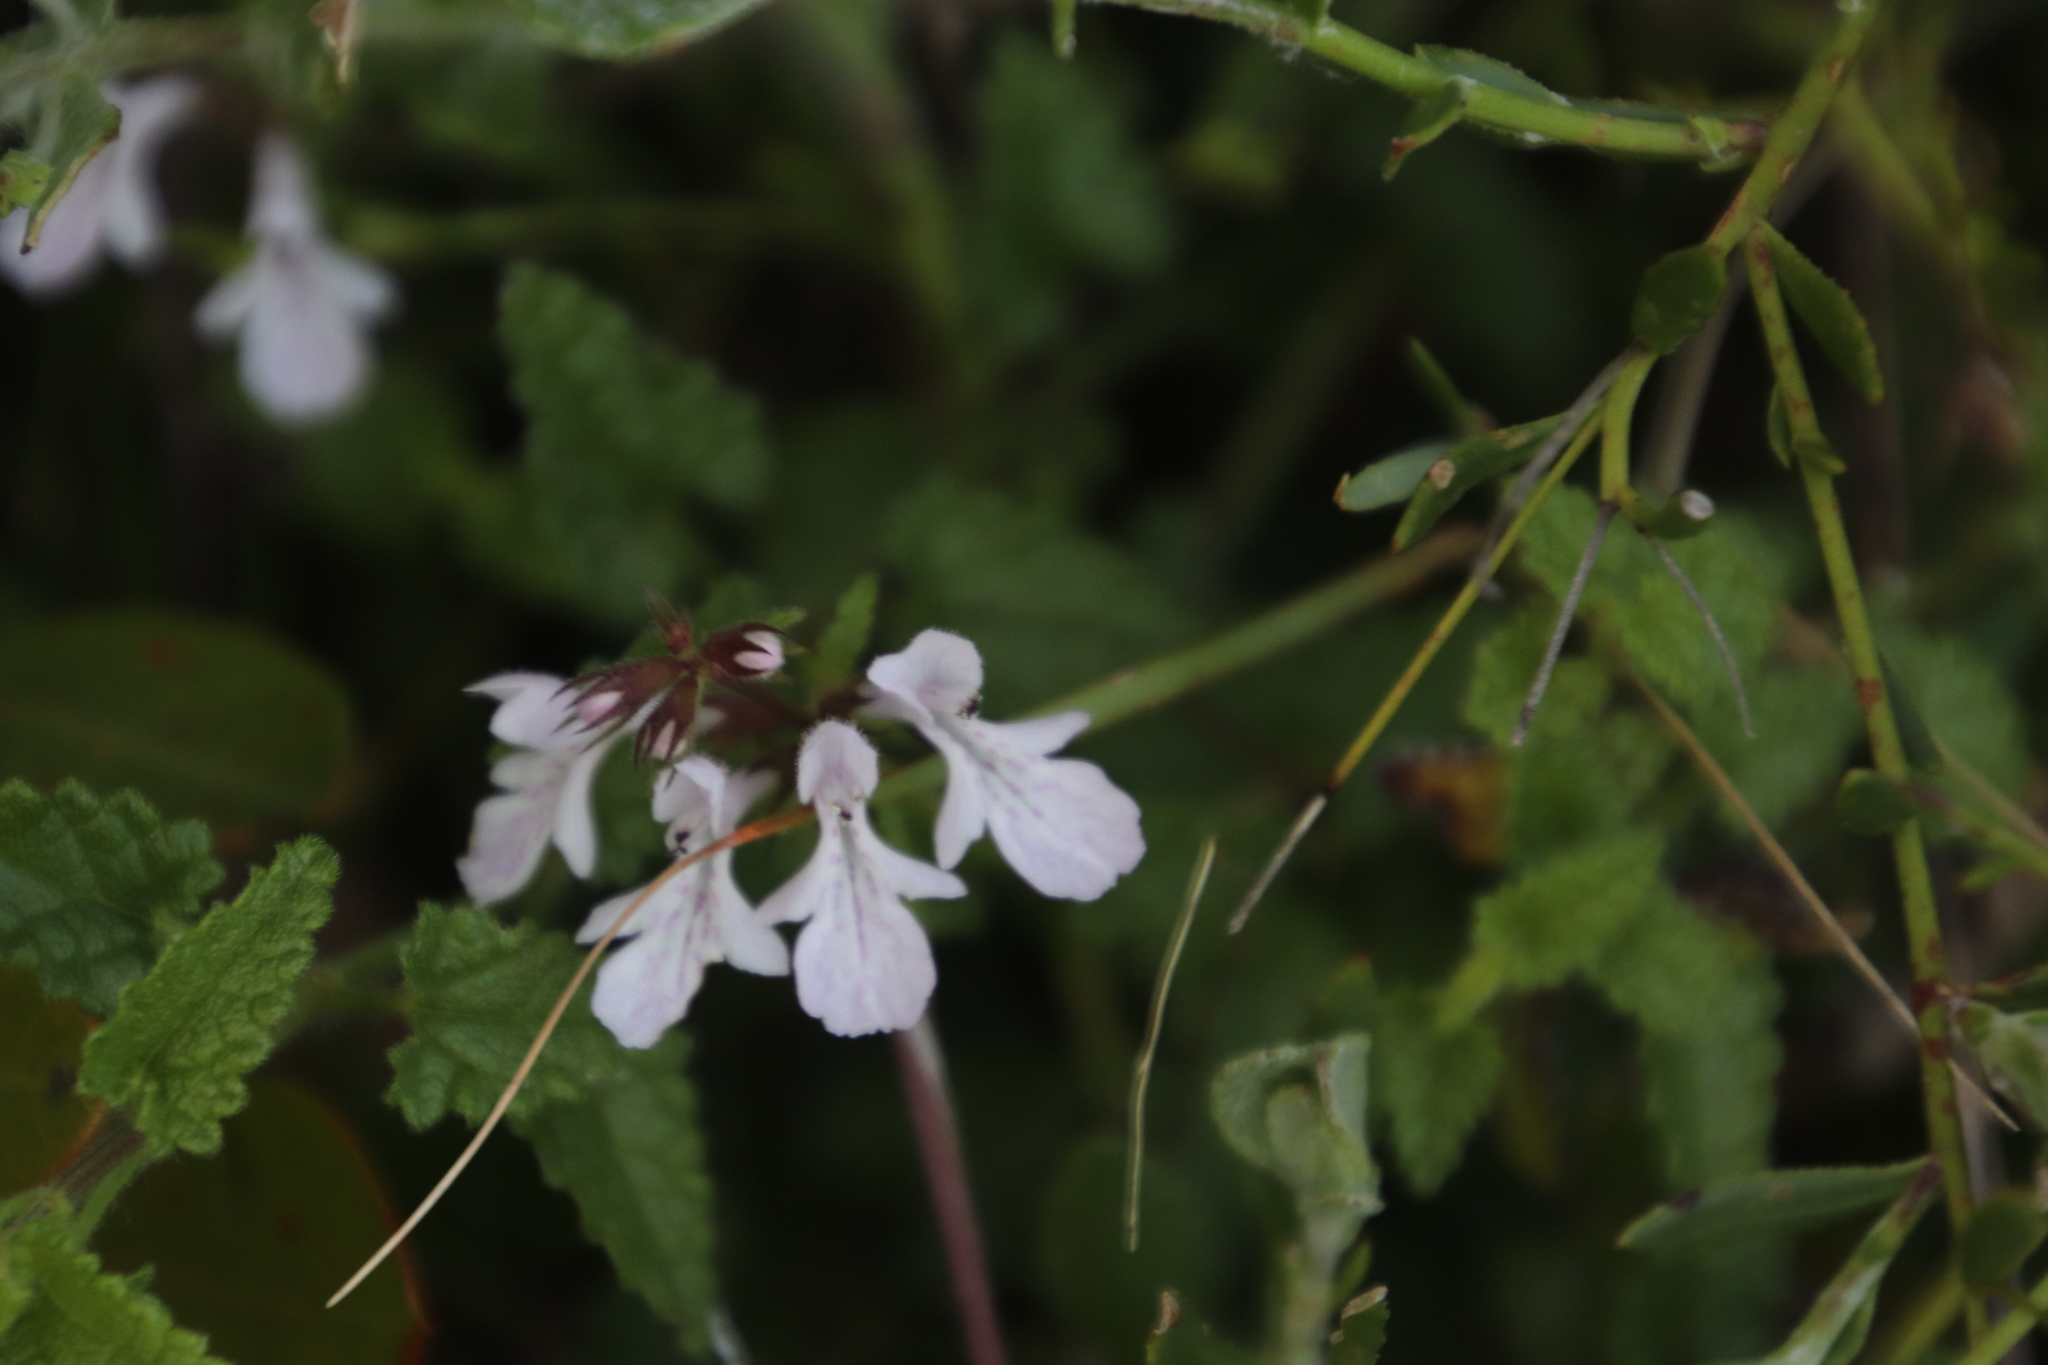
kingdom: Plantae
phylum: Tracheophyta
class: Magnoliopsida
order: Lamiales
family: Lamiaceae
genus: Stachys
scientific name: Stachys aethiopica
